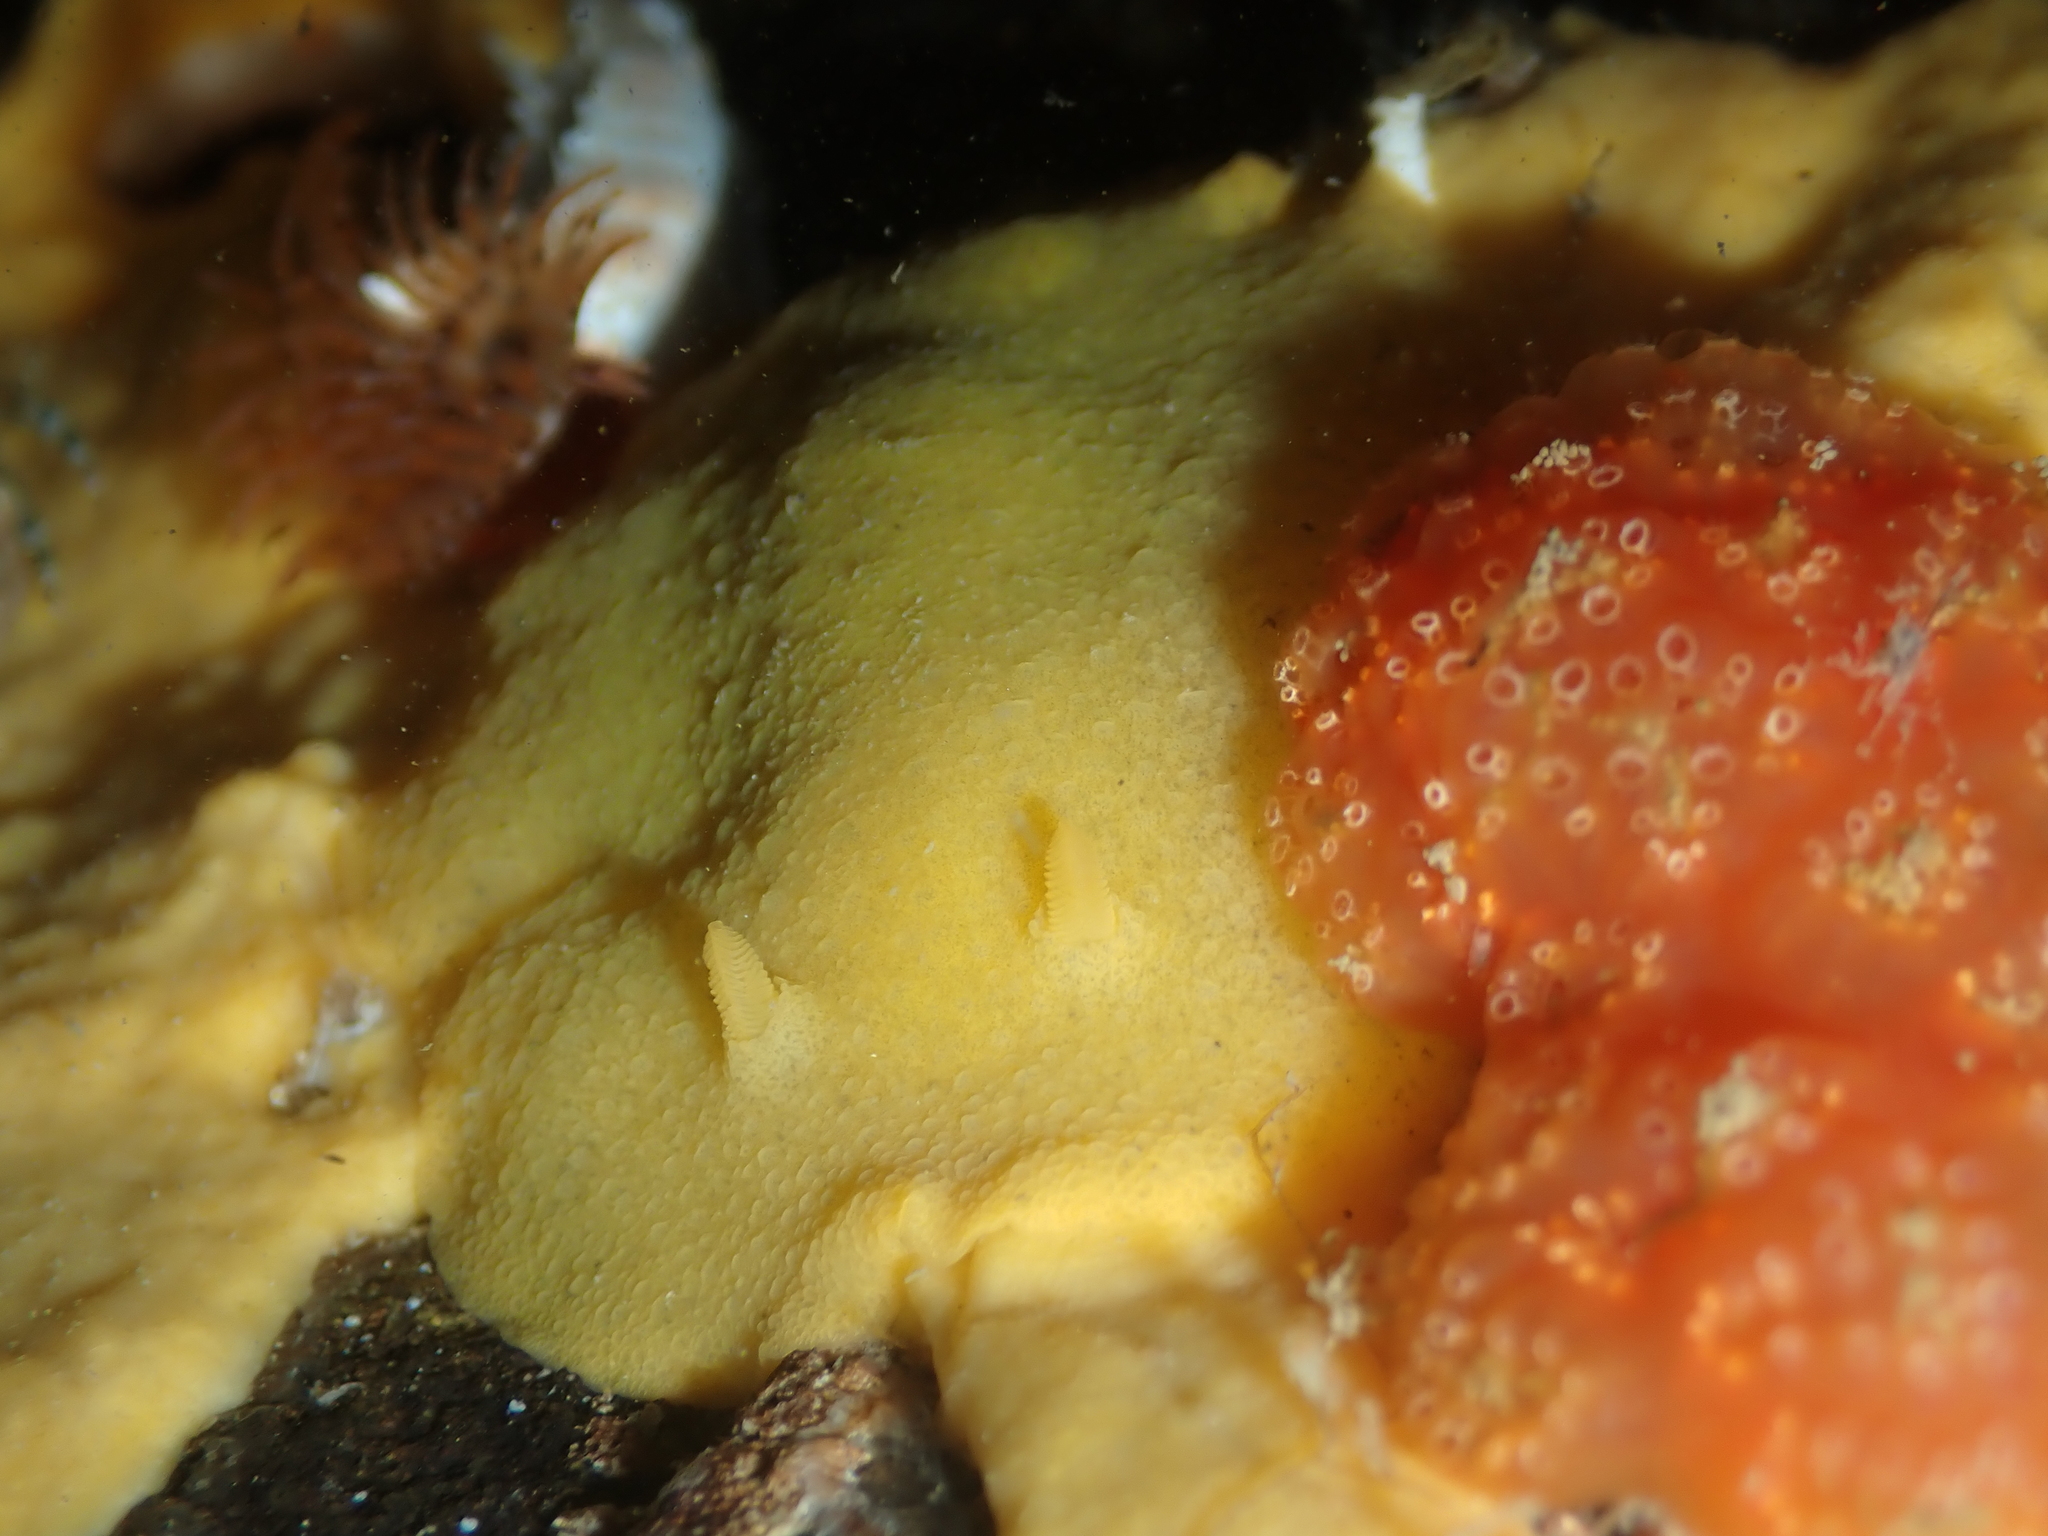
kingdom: Animalia
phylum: Mollusca
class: Gastropoda
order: Nudibranchia
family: Dorididae
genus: Doriopsis
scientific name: Doriopsis granulosa
